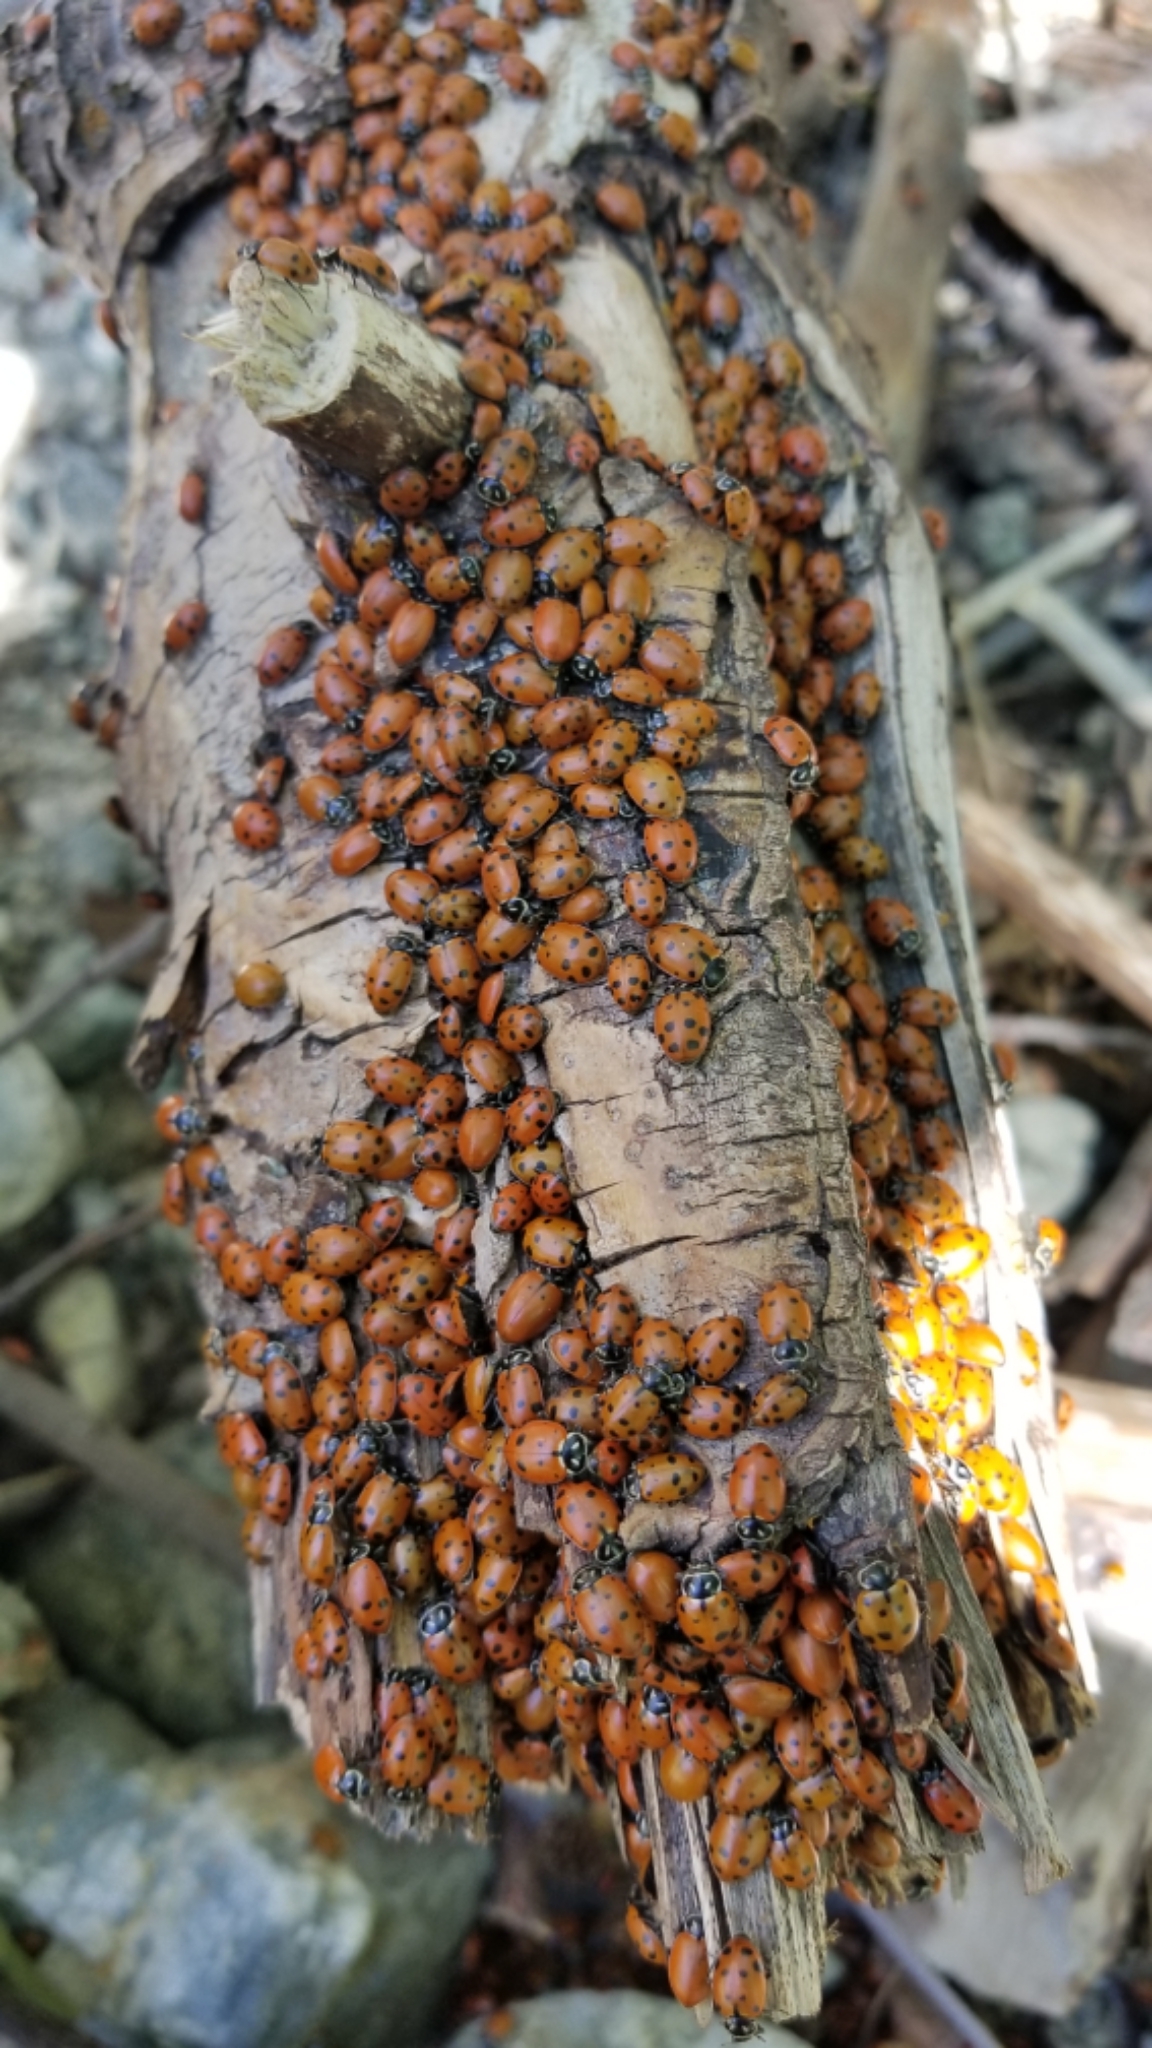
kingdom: Animalia
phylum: Arthropoda
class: Insecta
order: Coleoptera
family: Coccinellidae
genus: Hippodamia
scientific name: Hippodamia convergens
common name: Convergent lady beetle
